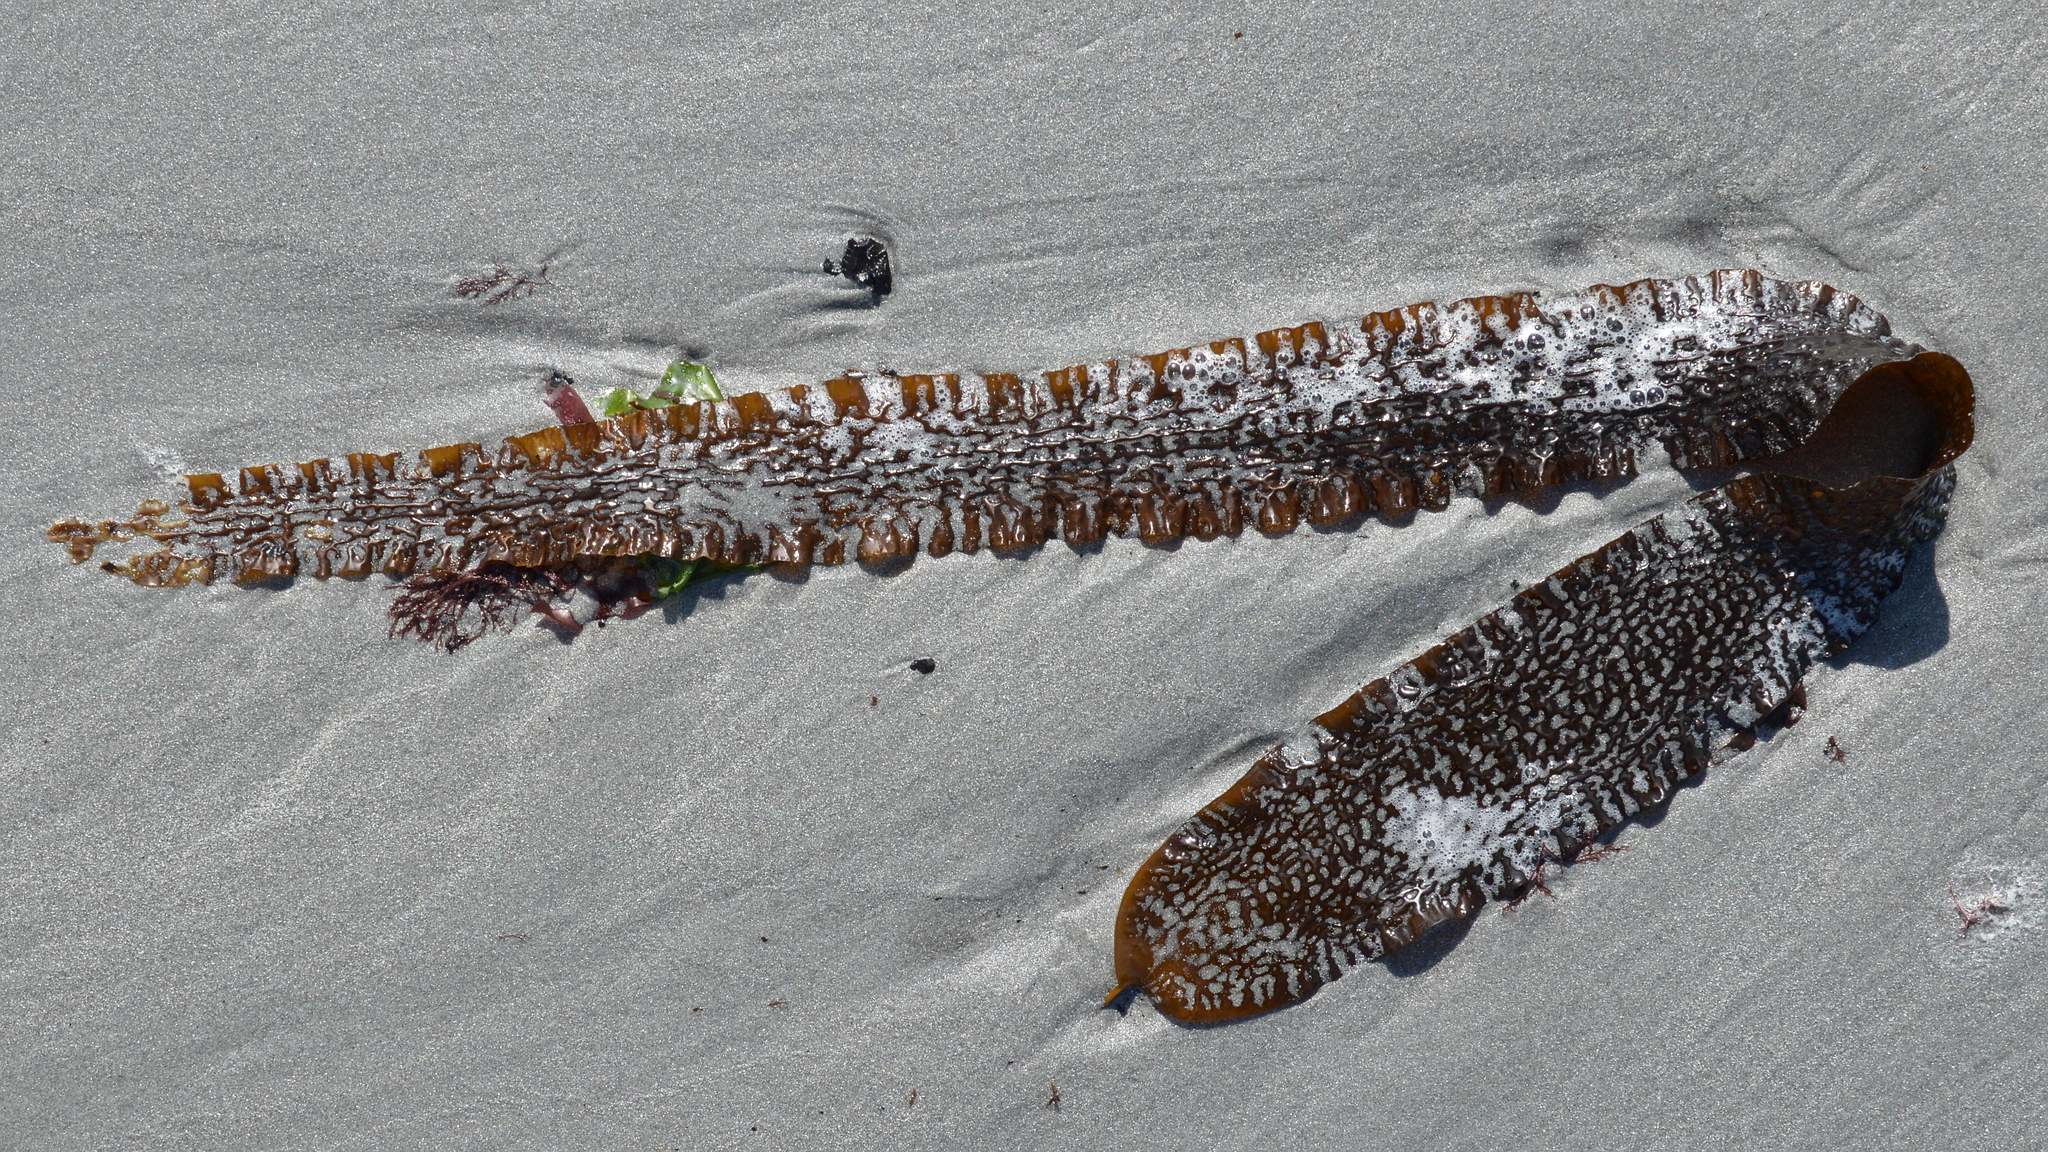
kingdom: Chromista
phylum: Ochrophyta
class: Phaeophyceae
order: Laminariales
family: Laminariaceae
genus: Saccharina
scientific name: Saccharina latissima
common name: Poor man's weather glass
